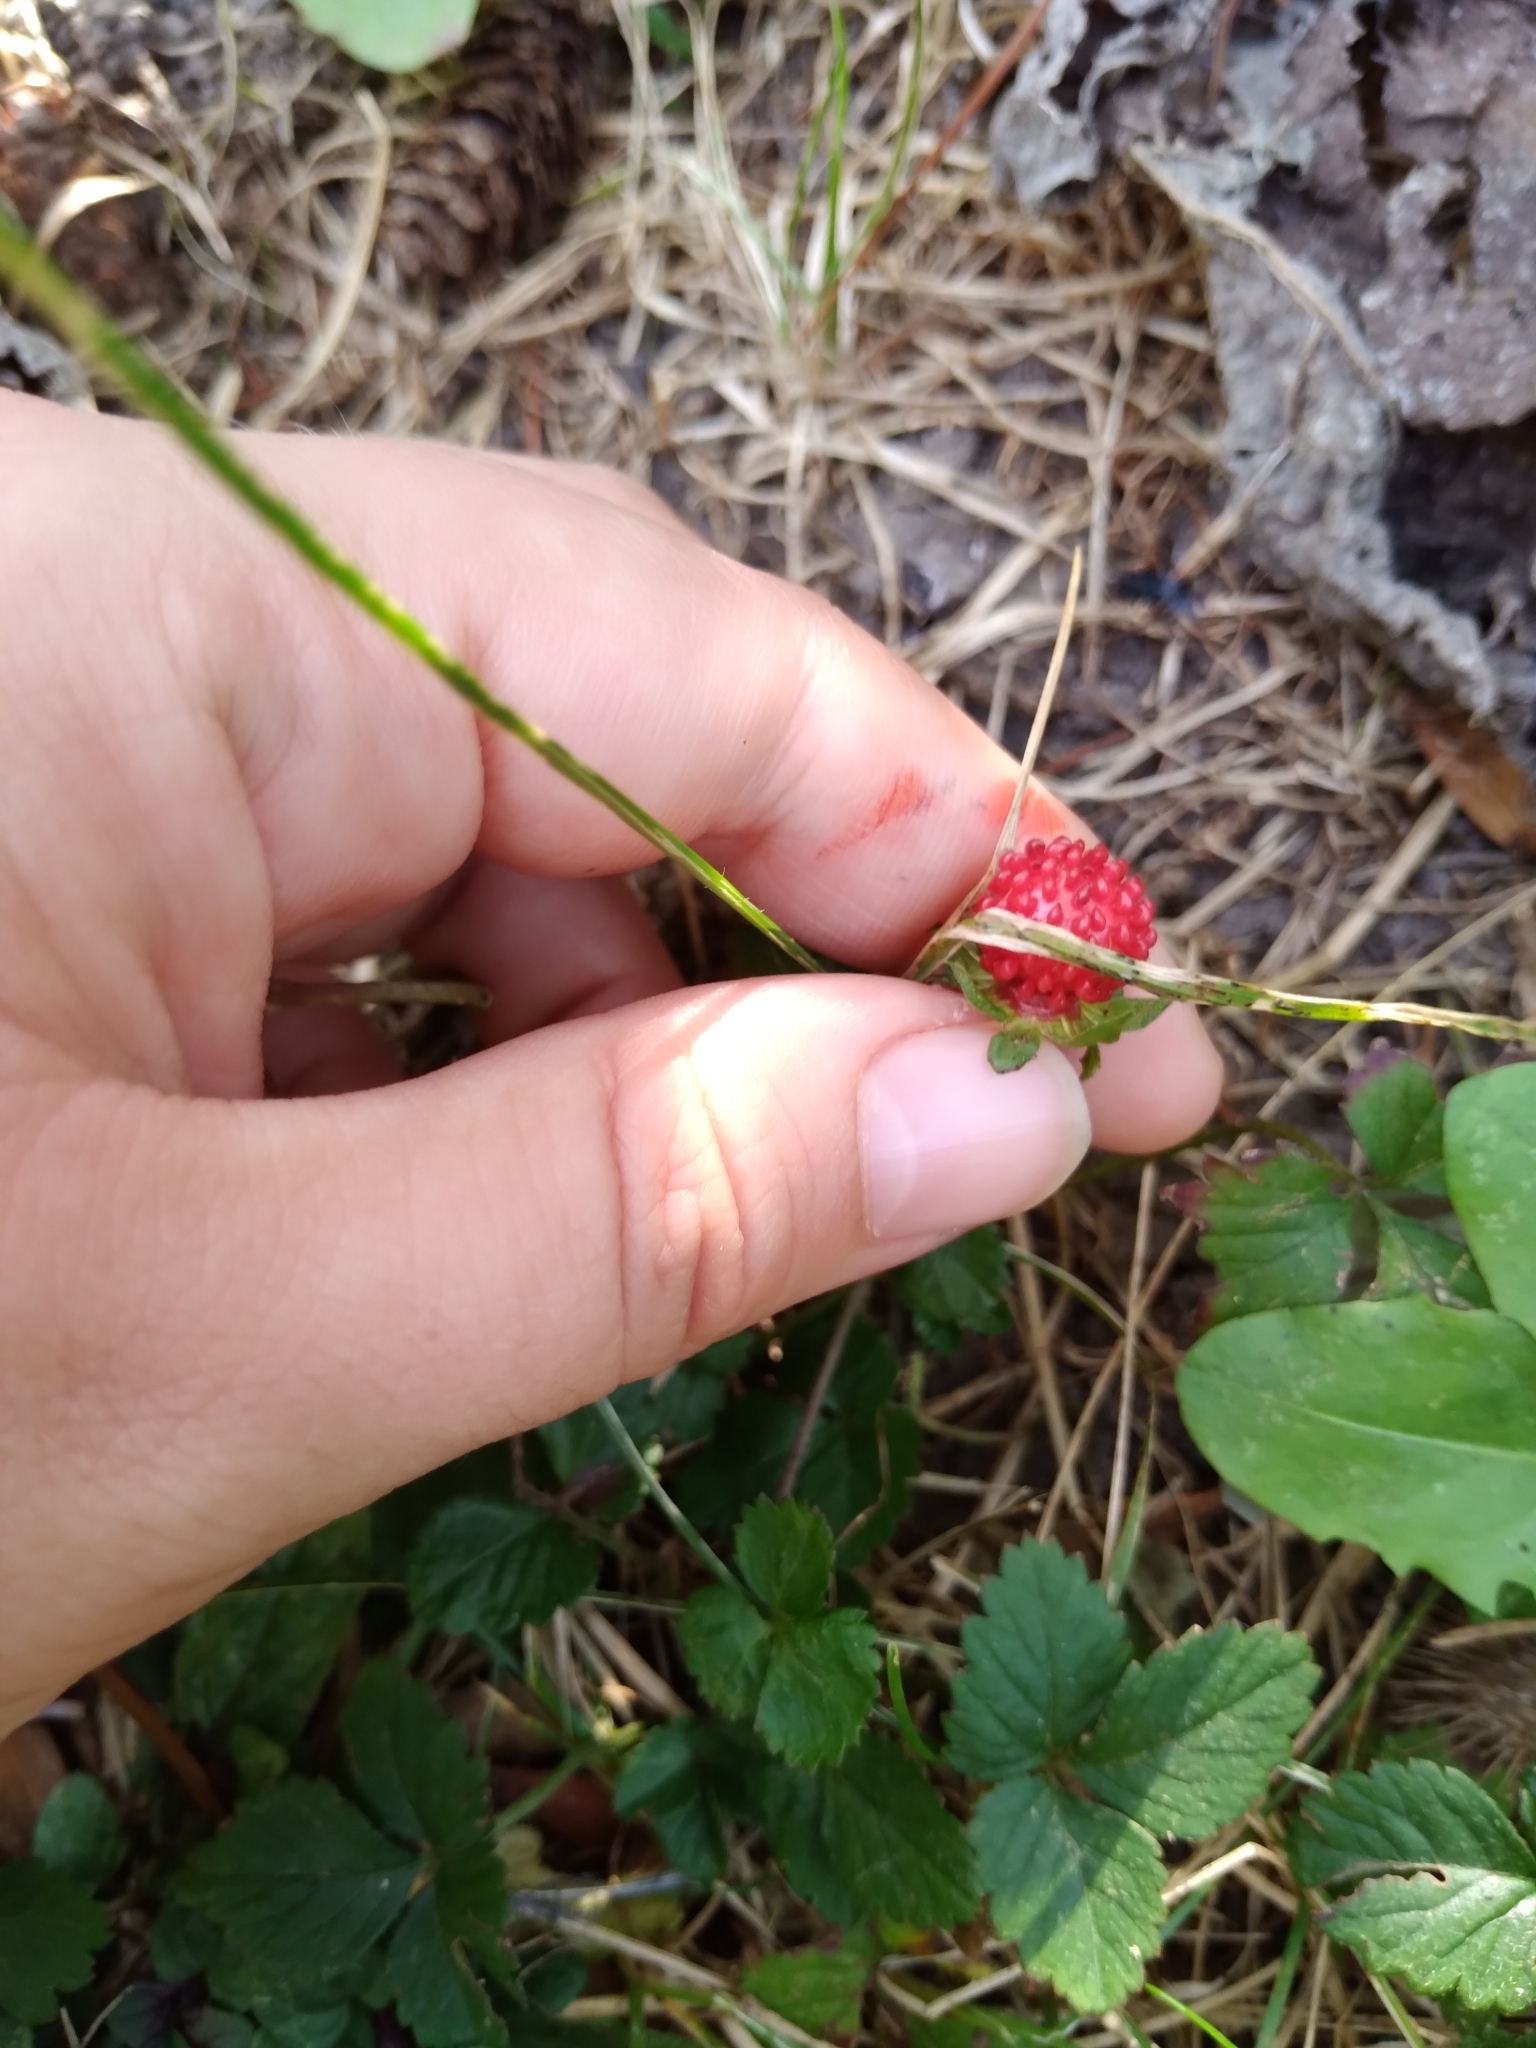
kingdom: Plantae
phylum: Tracheophyta
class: Magnoliopsida
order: Rosales
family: Rosaceae
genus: Potentilla
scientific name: Potentilla indica
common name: Yellow-flowered strawberry
